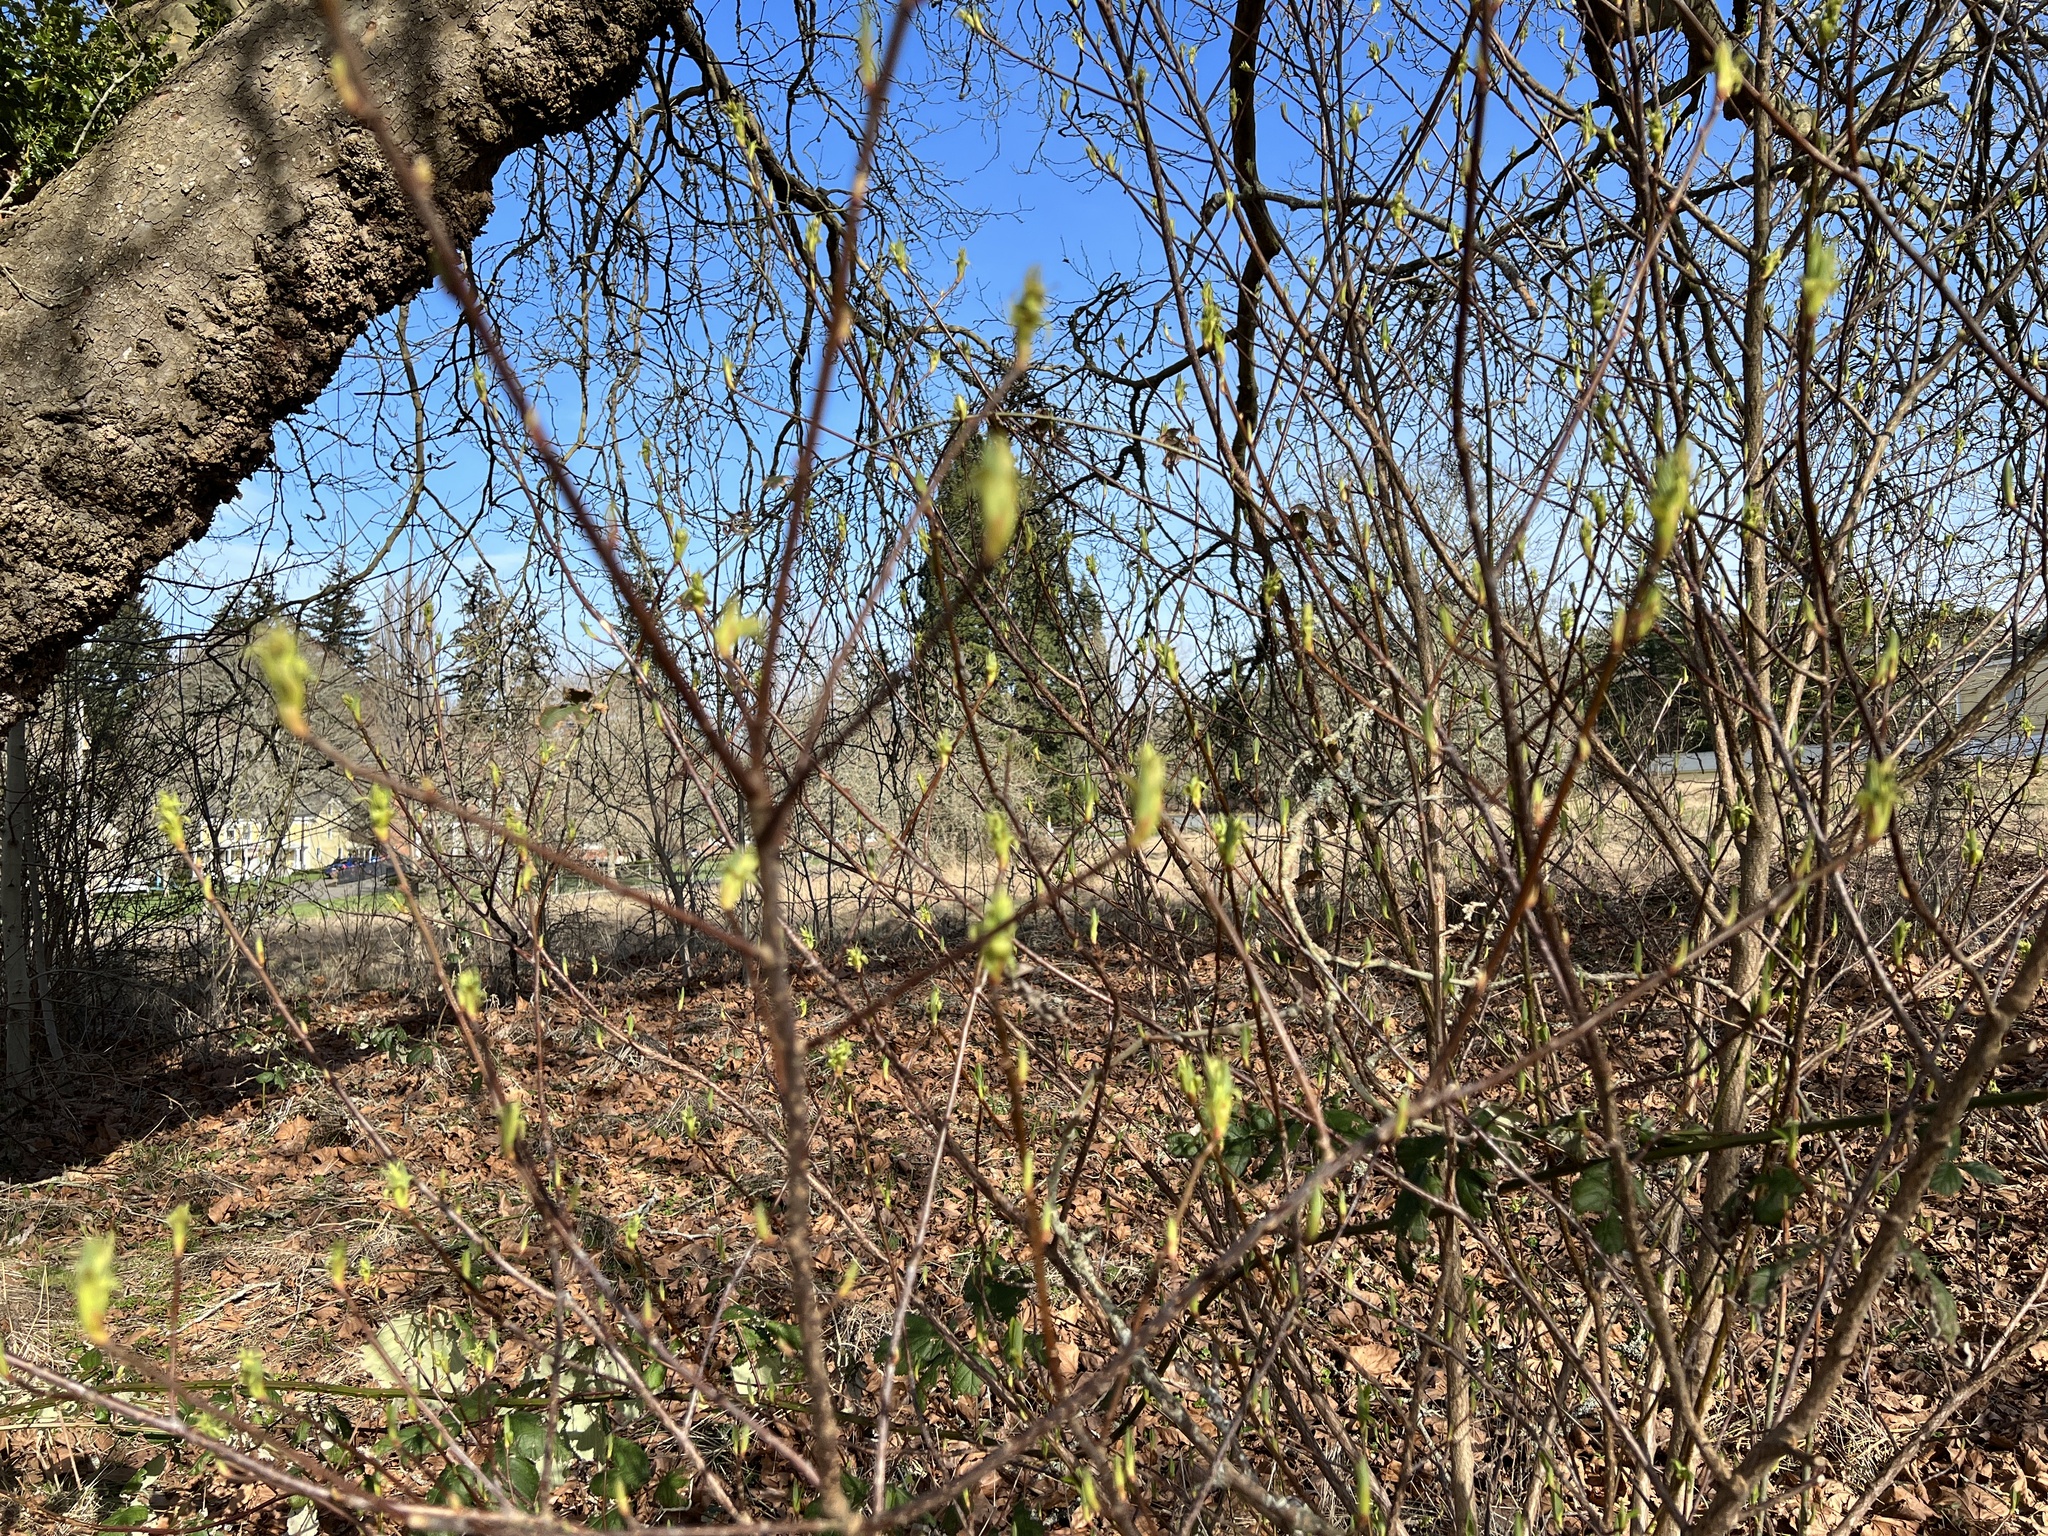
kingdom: Plantae
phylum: Tracheophyta
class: Magnoliopsida
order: Rosales
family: Rosaceae
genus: Oemleria
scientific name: Oemleria cerasiformis
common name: Osoberry
